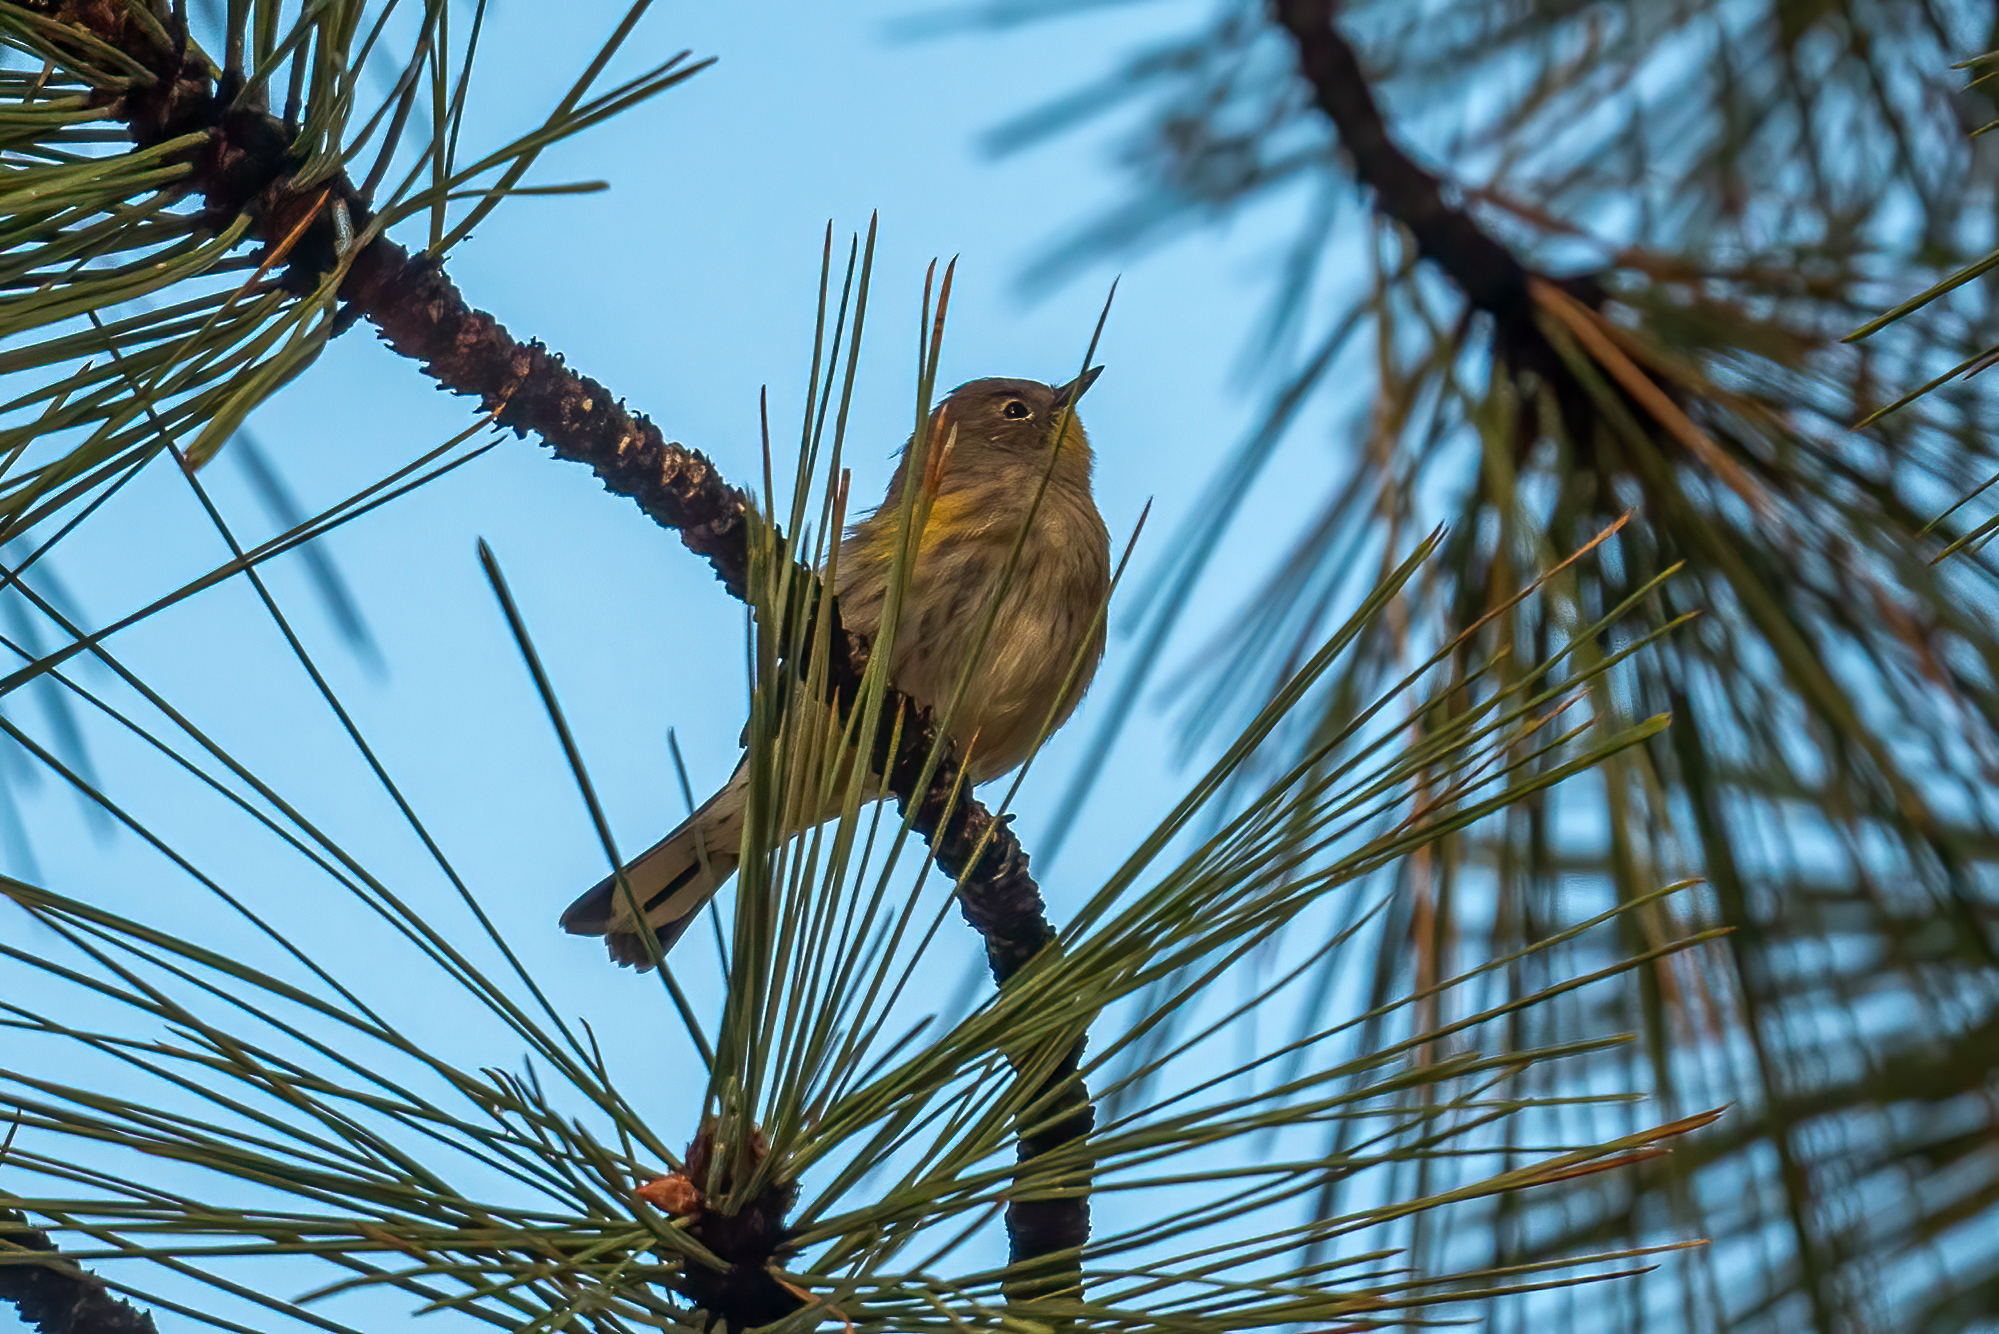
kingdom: Animalia
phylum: Chordata
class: Aves
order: Passeriformes
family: Parulidae
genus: Setophaga
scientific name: Setophaga coronata
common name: Myrtle warbler
